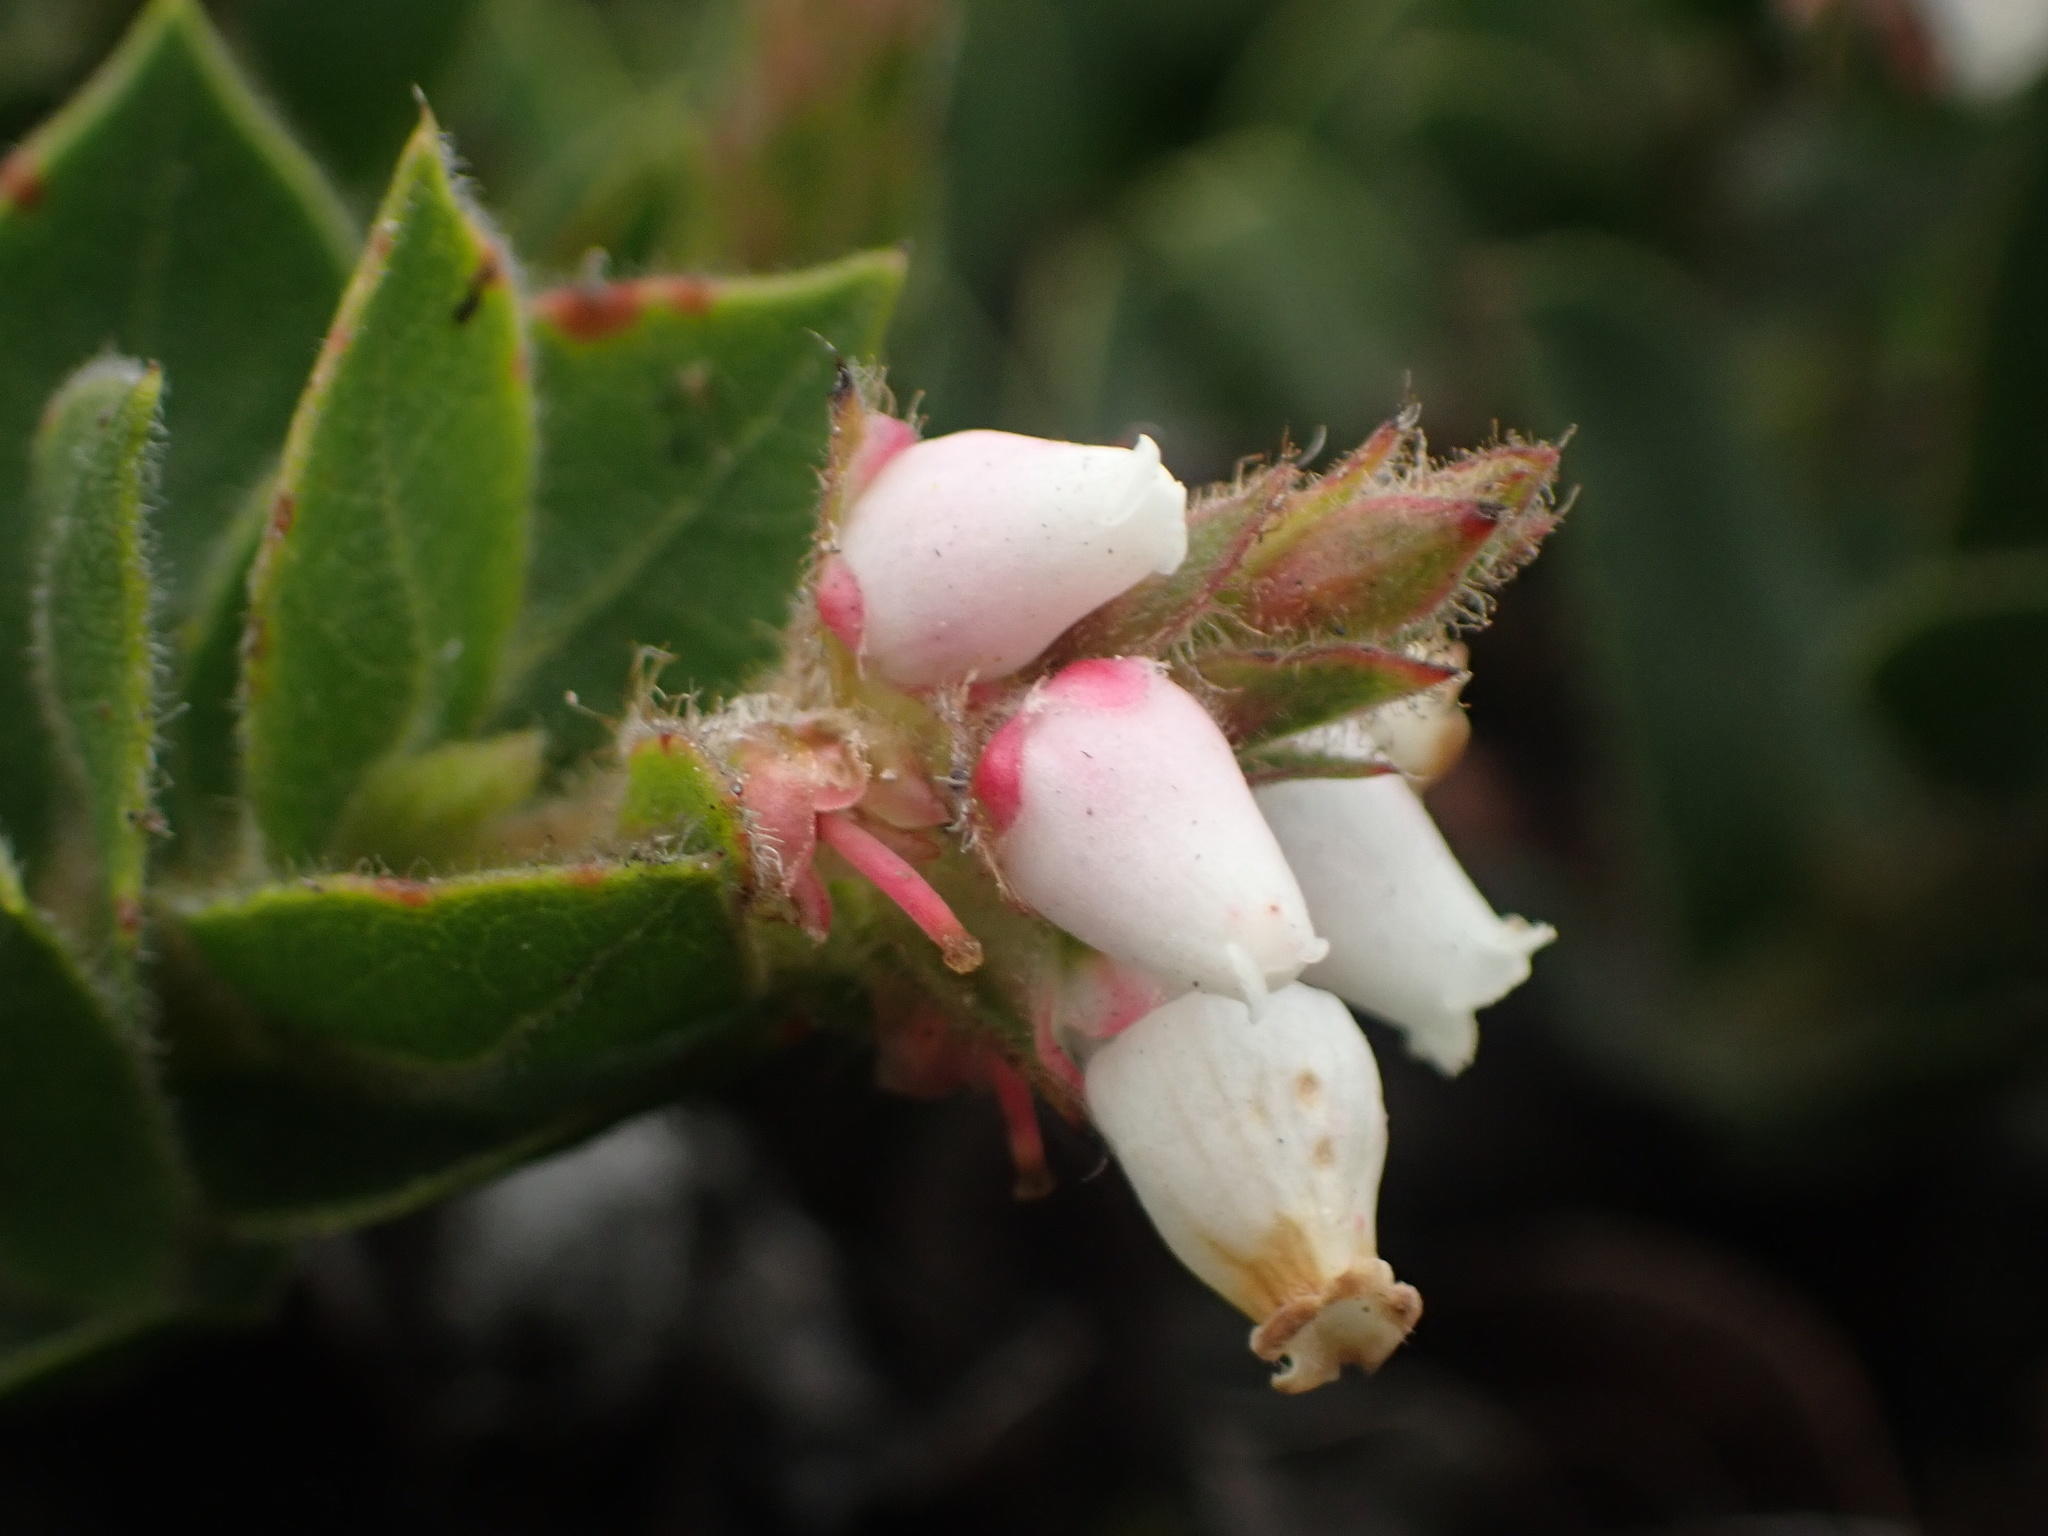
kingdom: Plantae
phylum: Tracheophyta
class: Magnoliopsida
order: Ericales
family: Ericaceae
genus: Arctostaphylos
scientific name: Arctostaphylos imbricata
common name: San bruno mountain manzanita
